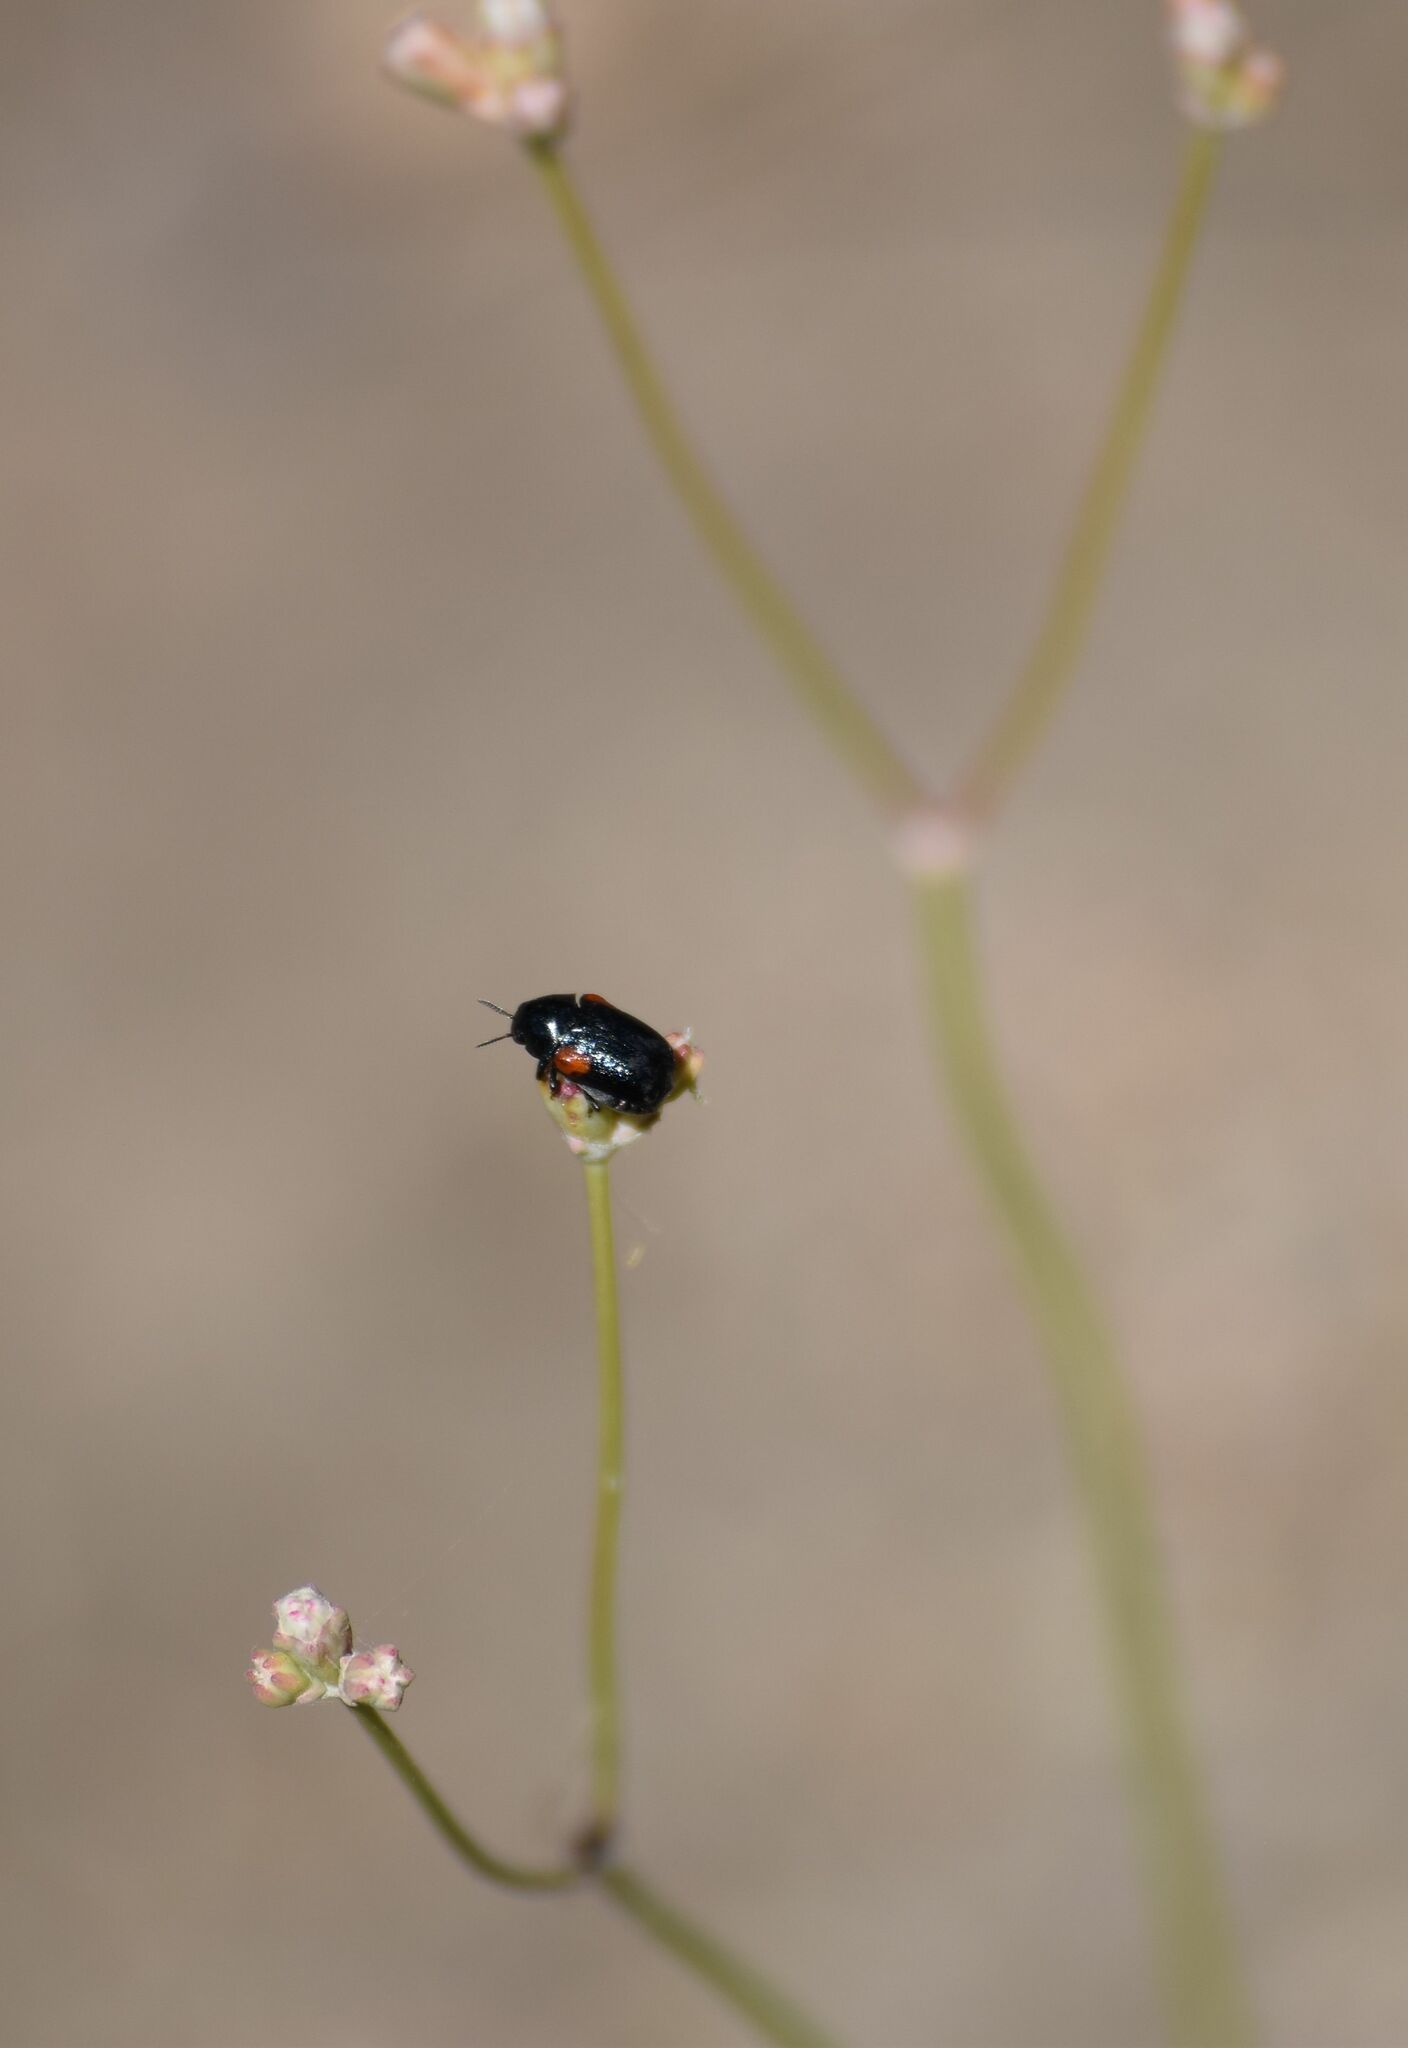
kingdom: Animalia
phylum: Arthropoda
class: Insecta
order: Coleoptera
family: Chrysomelidae
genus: Saxinis
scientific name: Saxinis saucia
